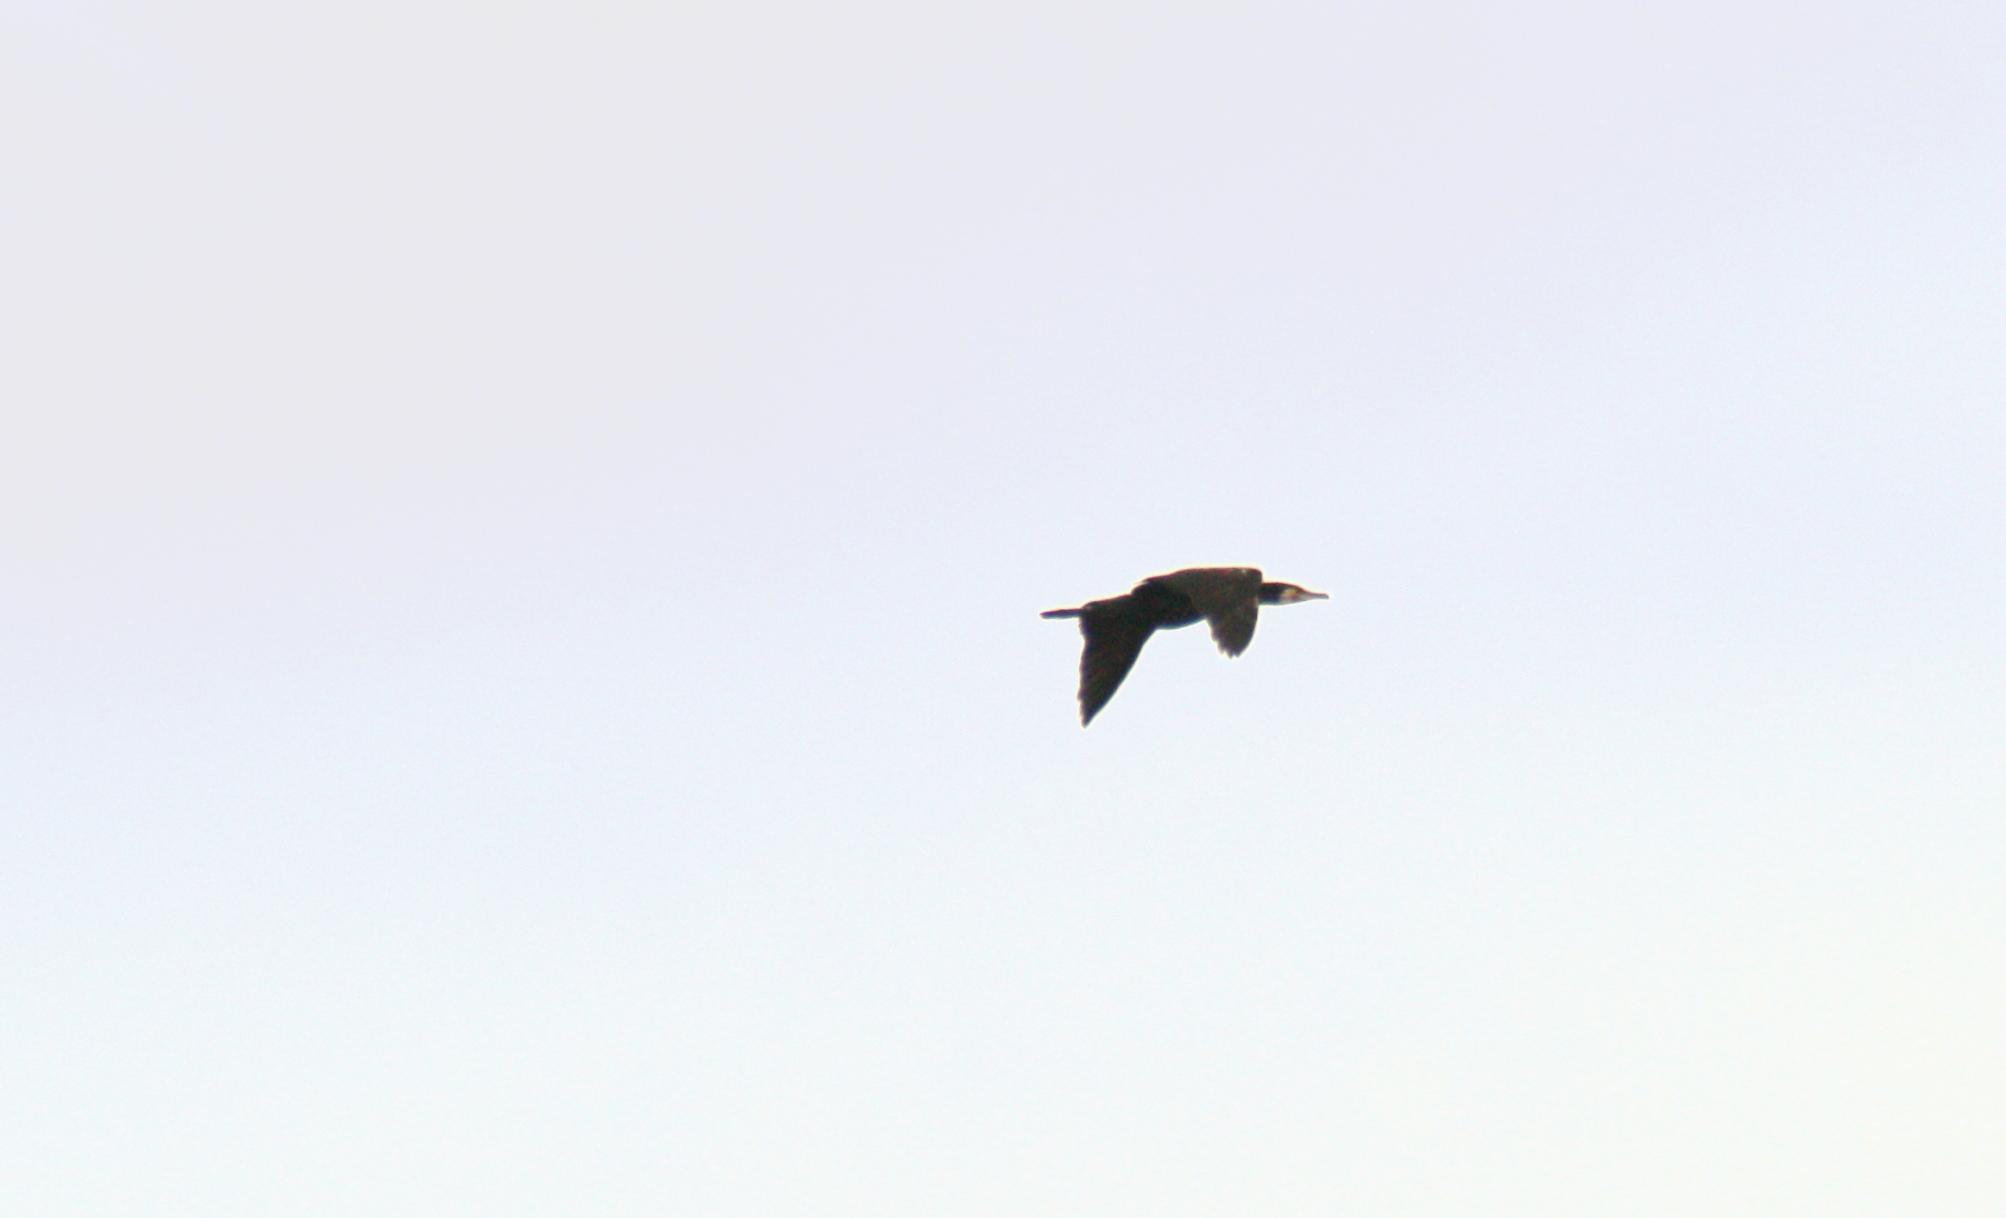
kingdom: Animalia
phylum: Chordata
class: Aves
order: Suliformes
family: Phalacrocoracidae
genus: Phalacrocorax
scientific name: Phalacrocorax carbo
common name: Great cormorant
